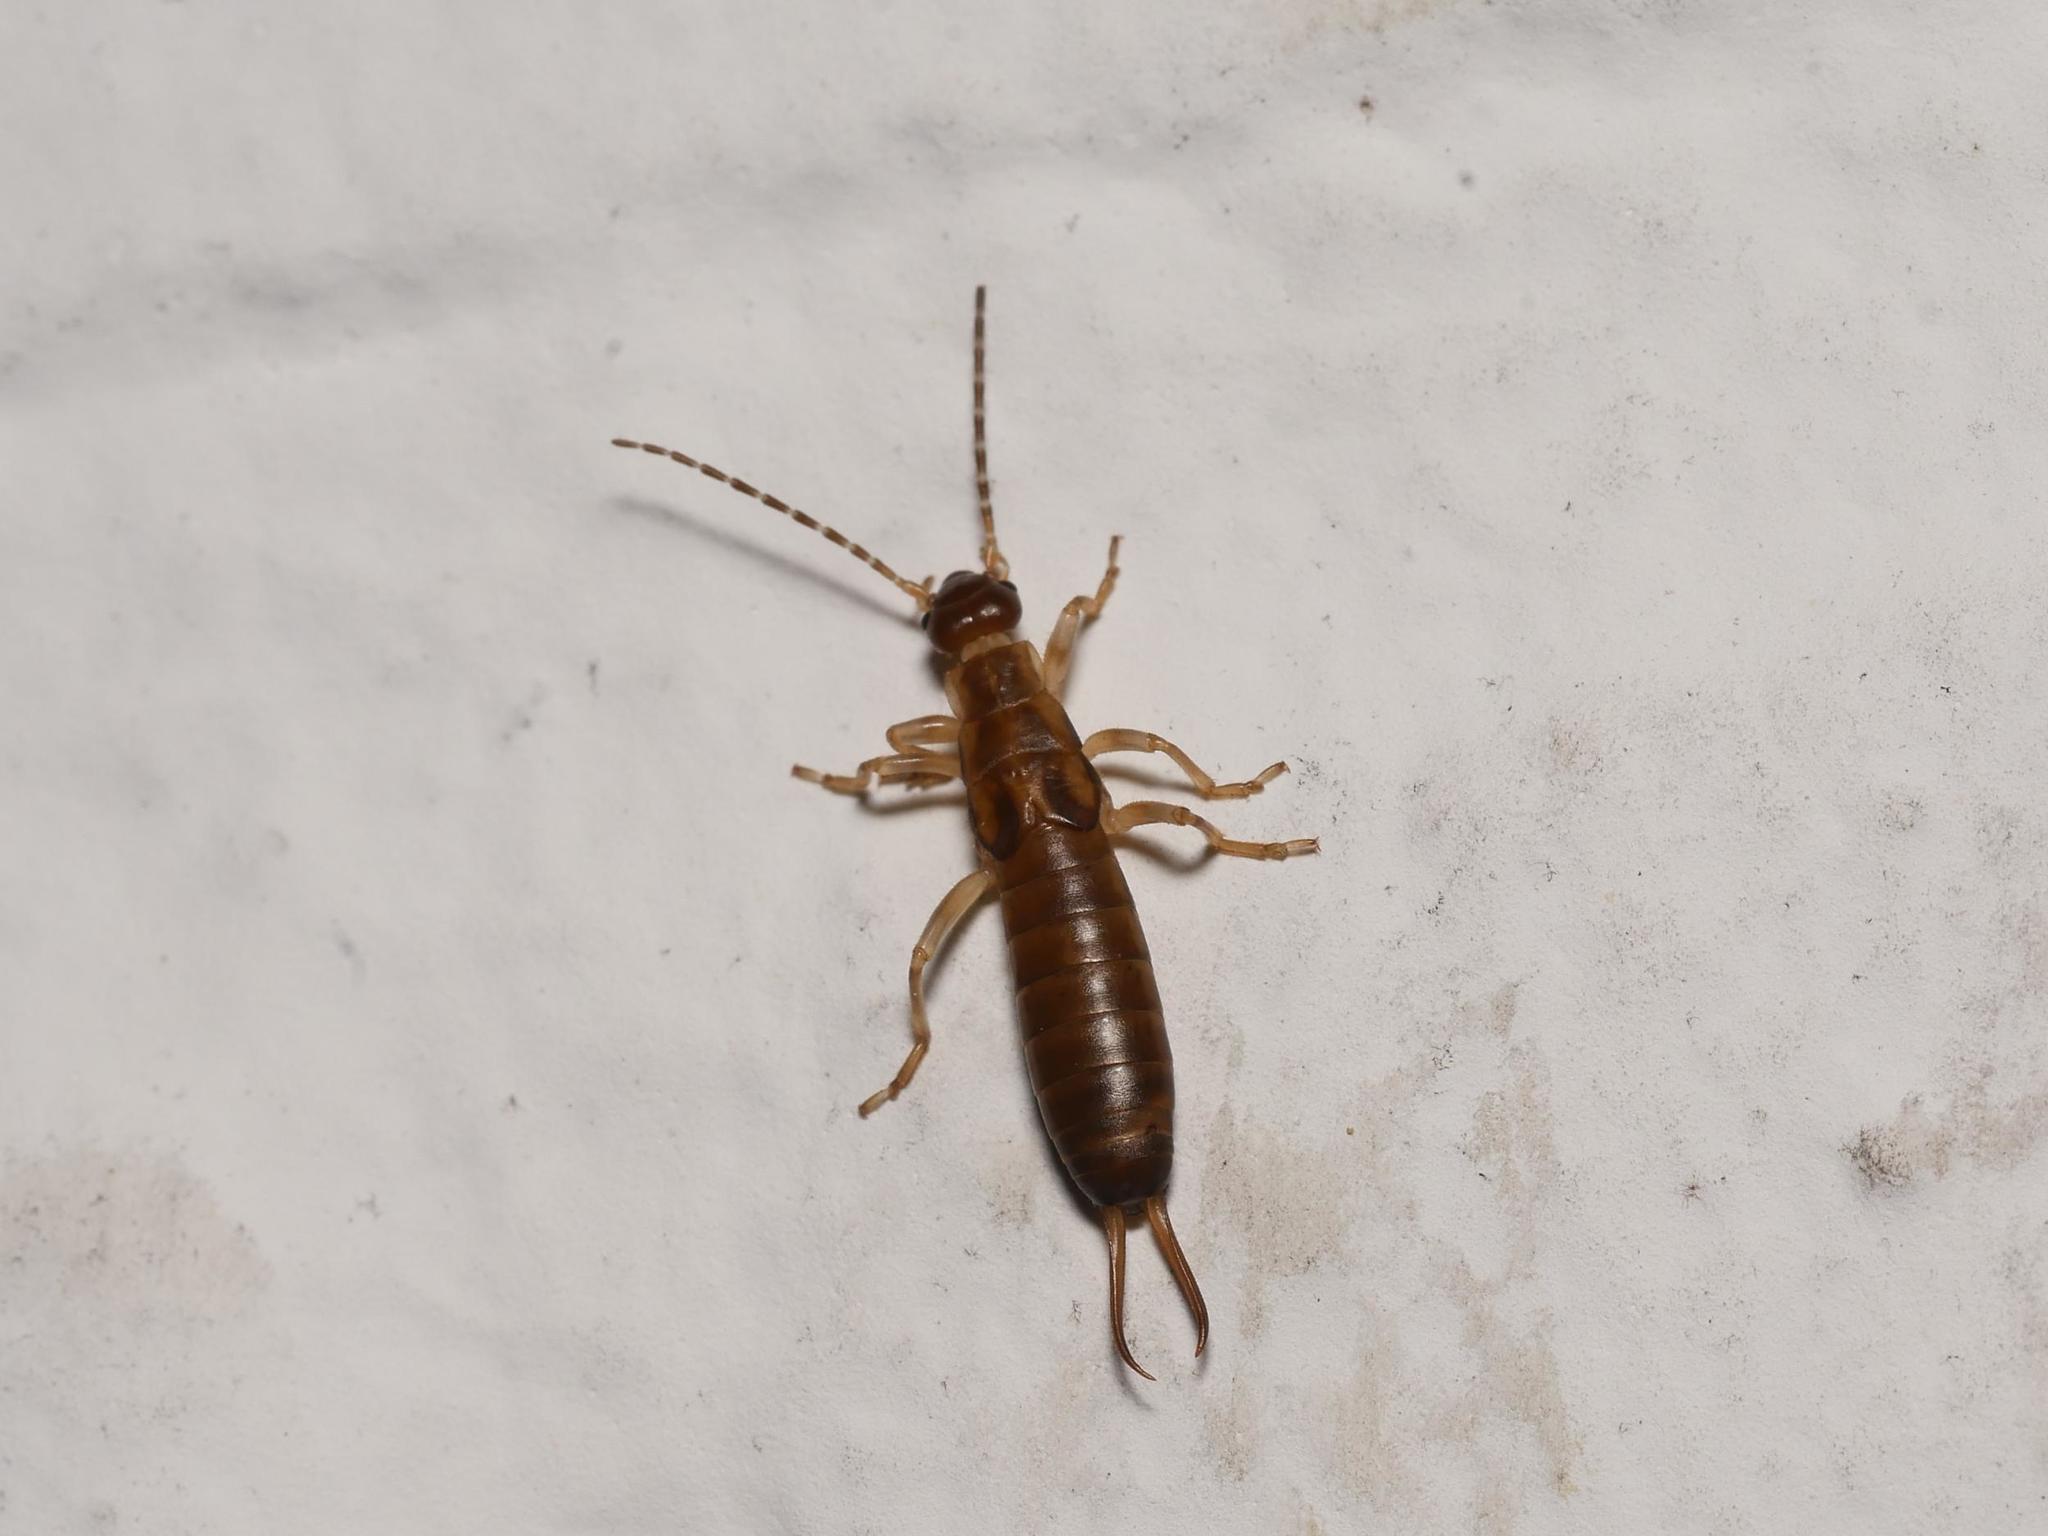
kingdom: Animalia
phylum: Arthropoda
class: Insecta
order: Dermaptera
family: Forficulidae
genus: Forficula
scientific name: Forficula
